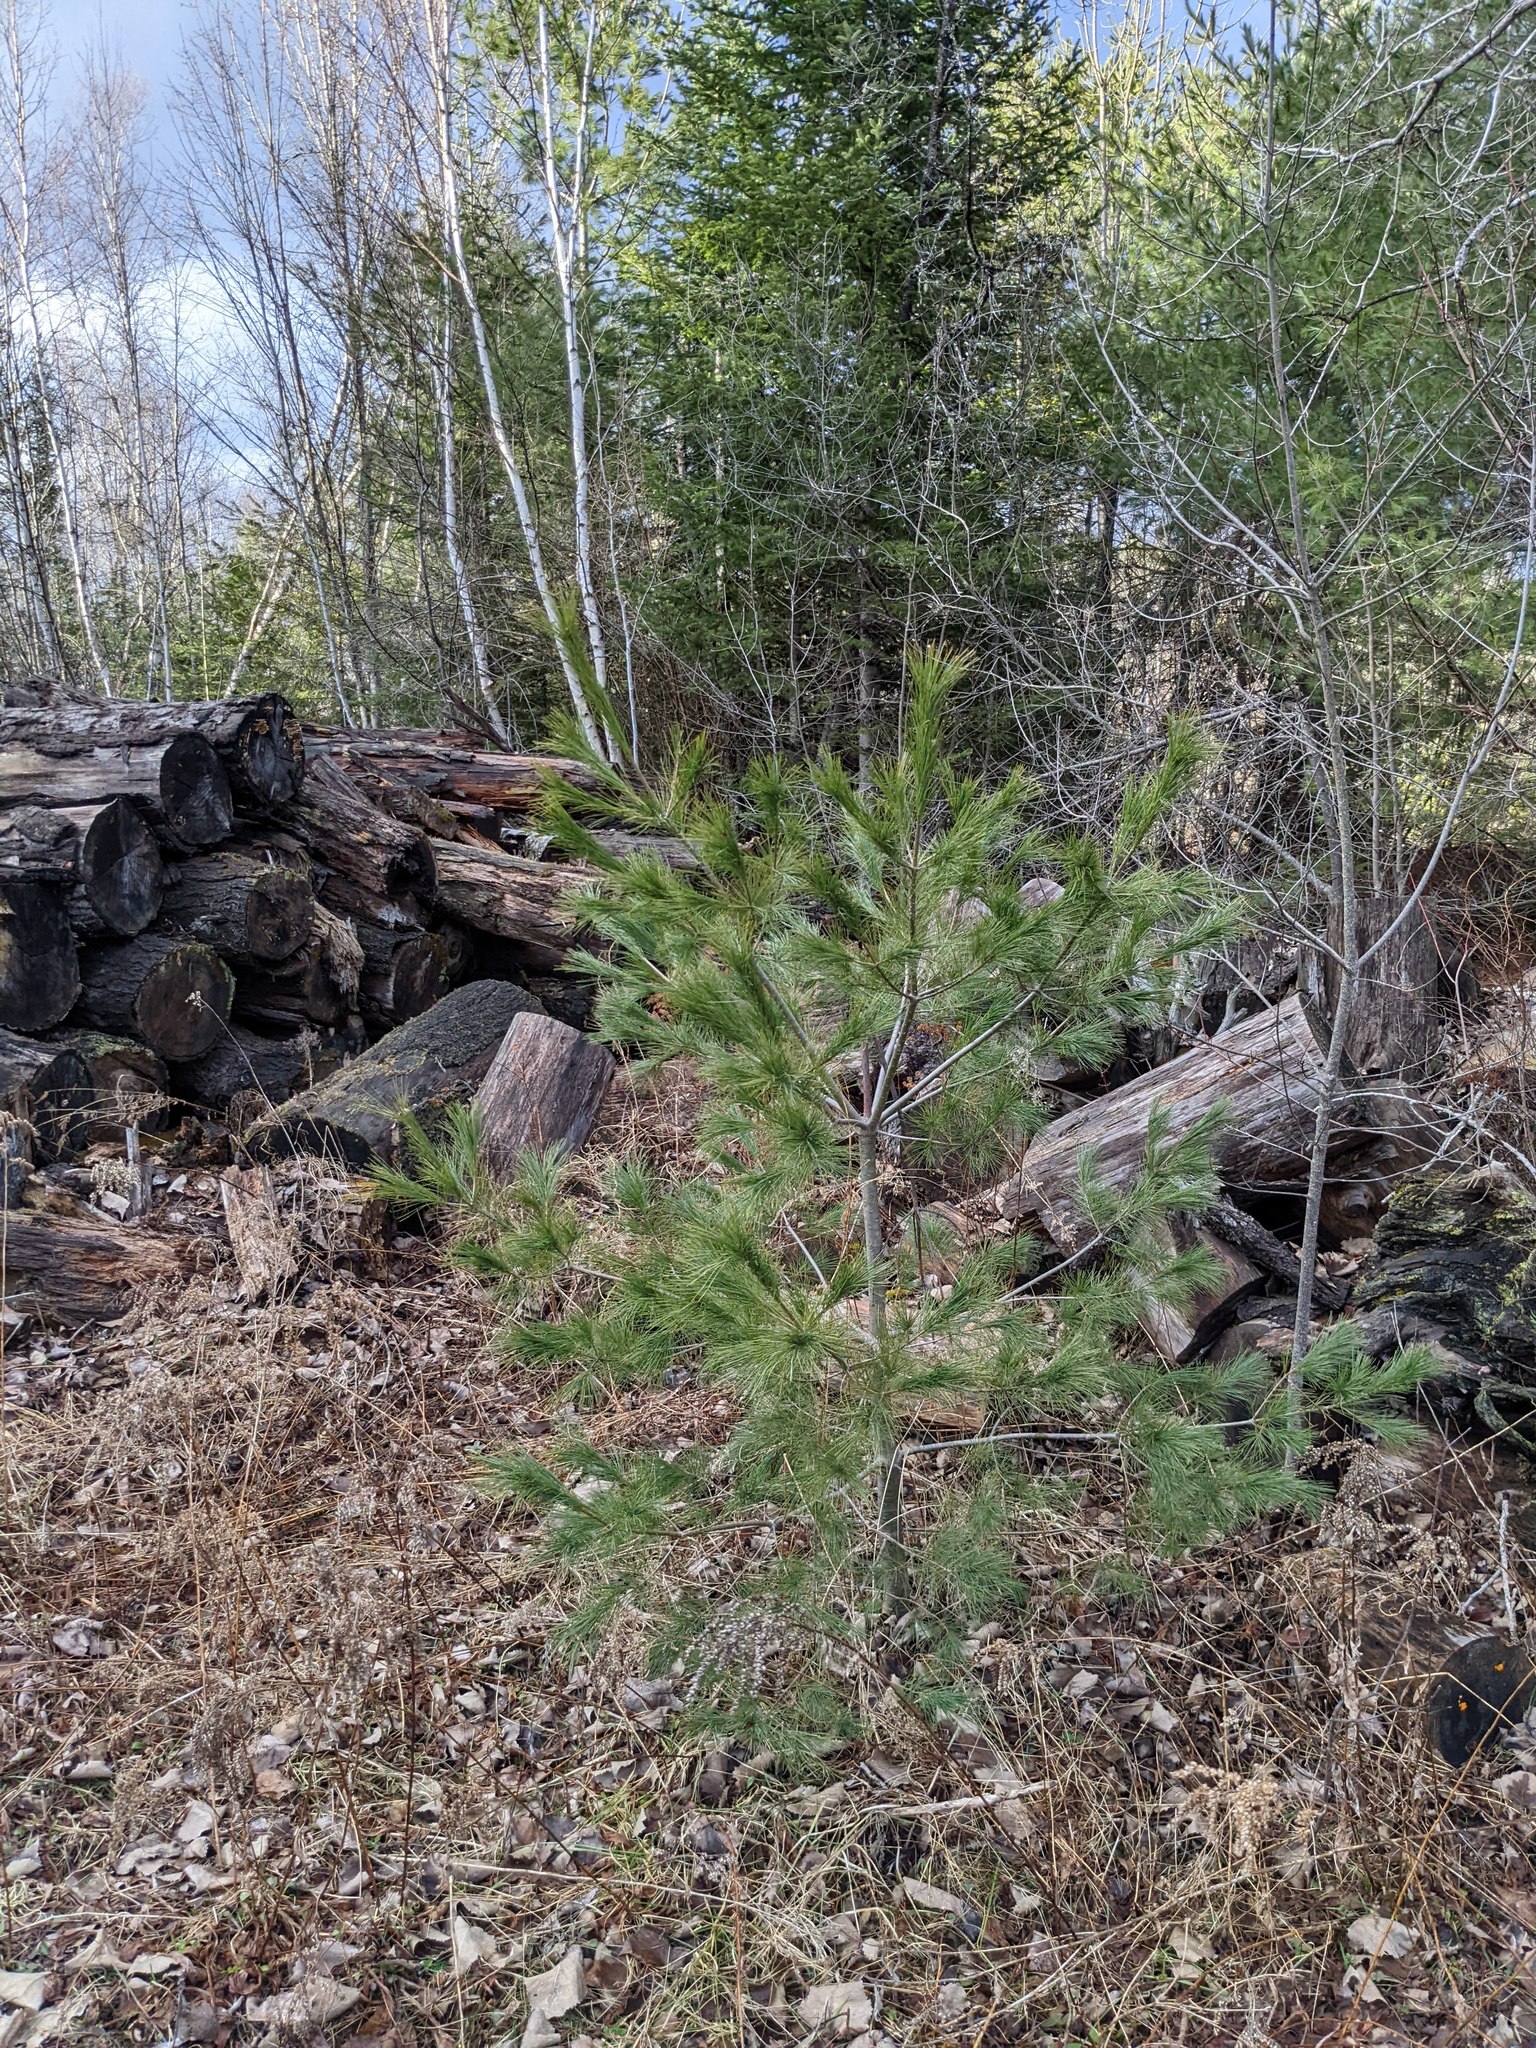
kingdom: Plantae
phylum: Tracheophyta
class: Pinopsida
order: Pinales
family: Pinaceae
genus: Pinus
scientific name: Pinus strobus
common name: Weymouth pine
